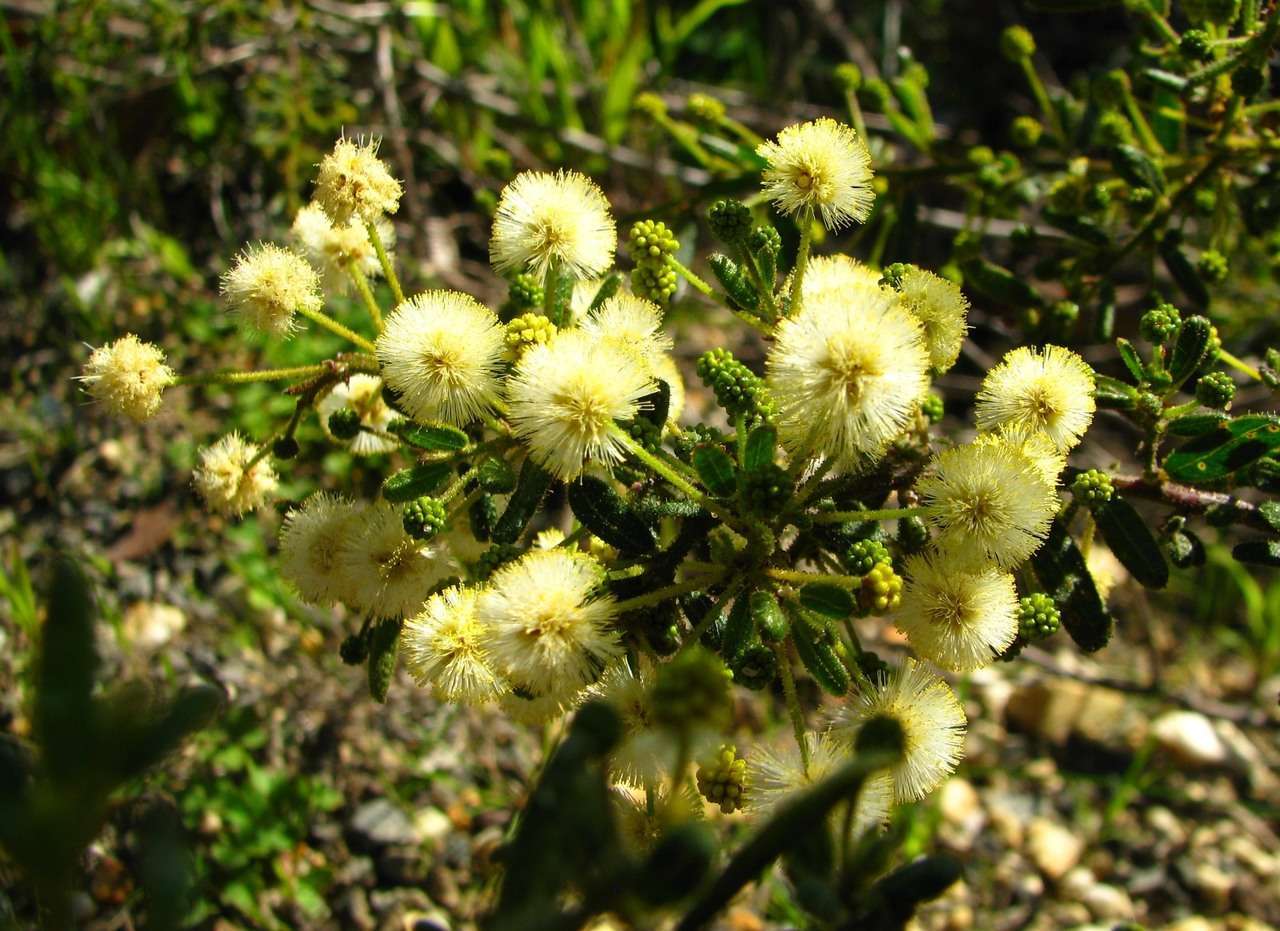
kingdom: Plantae
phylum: Tracheophyta
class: Magnoliopsida
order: Fabales
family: Fabaceae
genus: Acacia
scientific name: Acacia aspera
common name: Rough wattle
